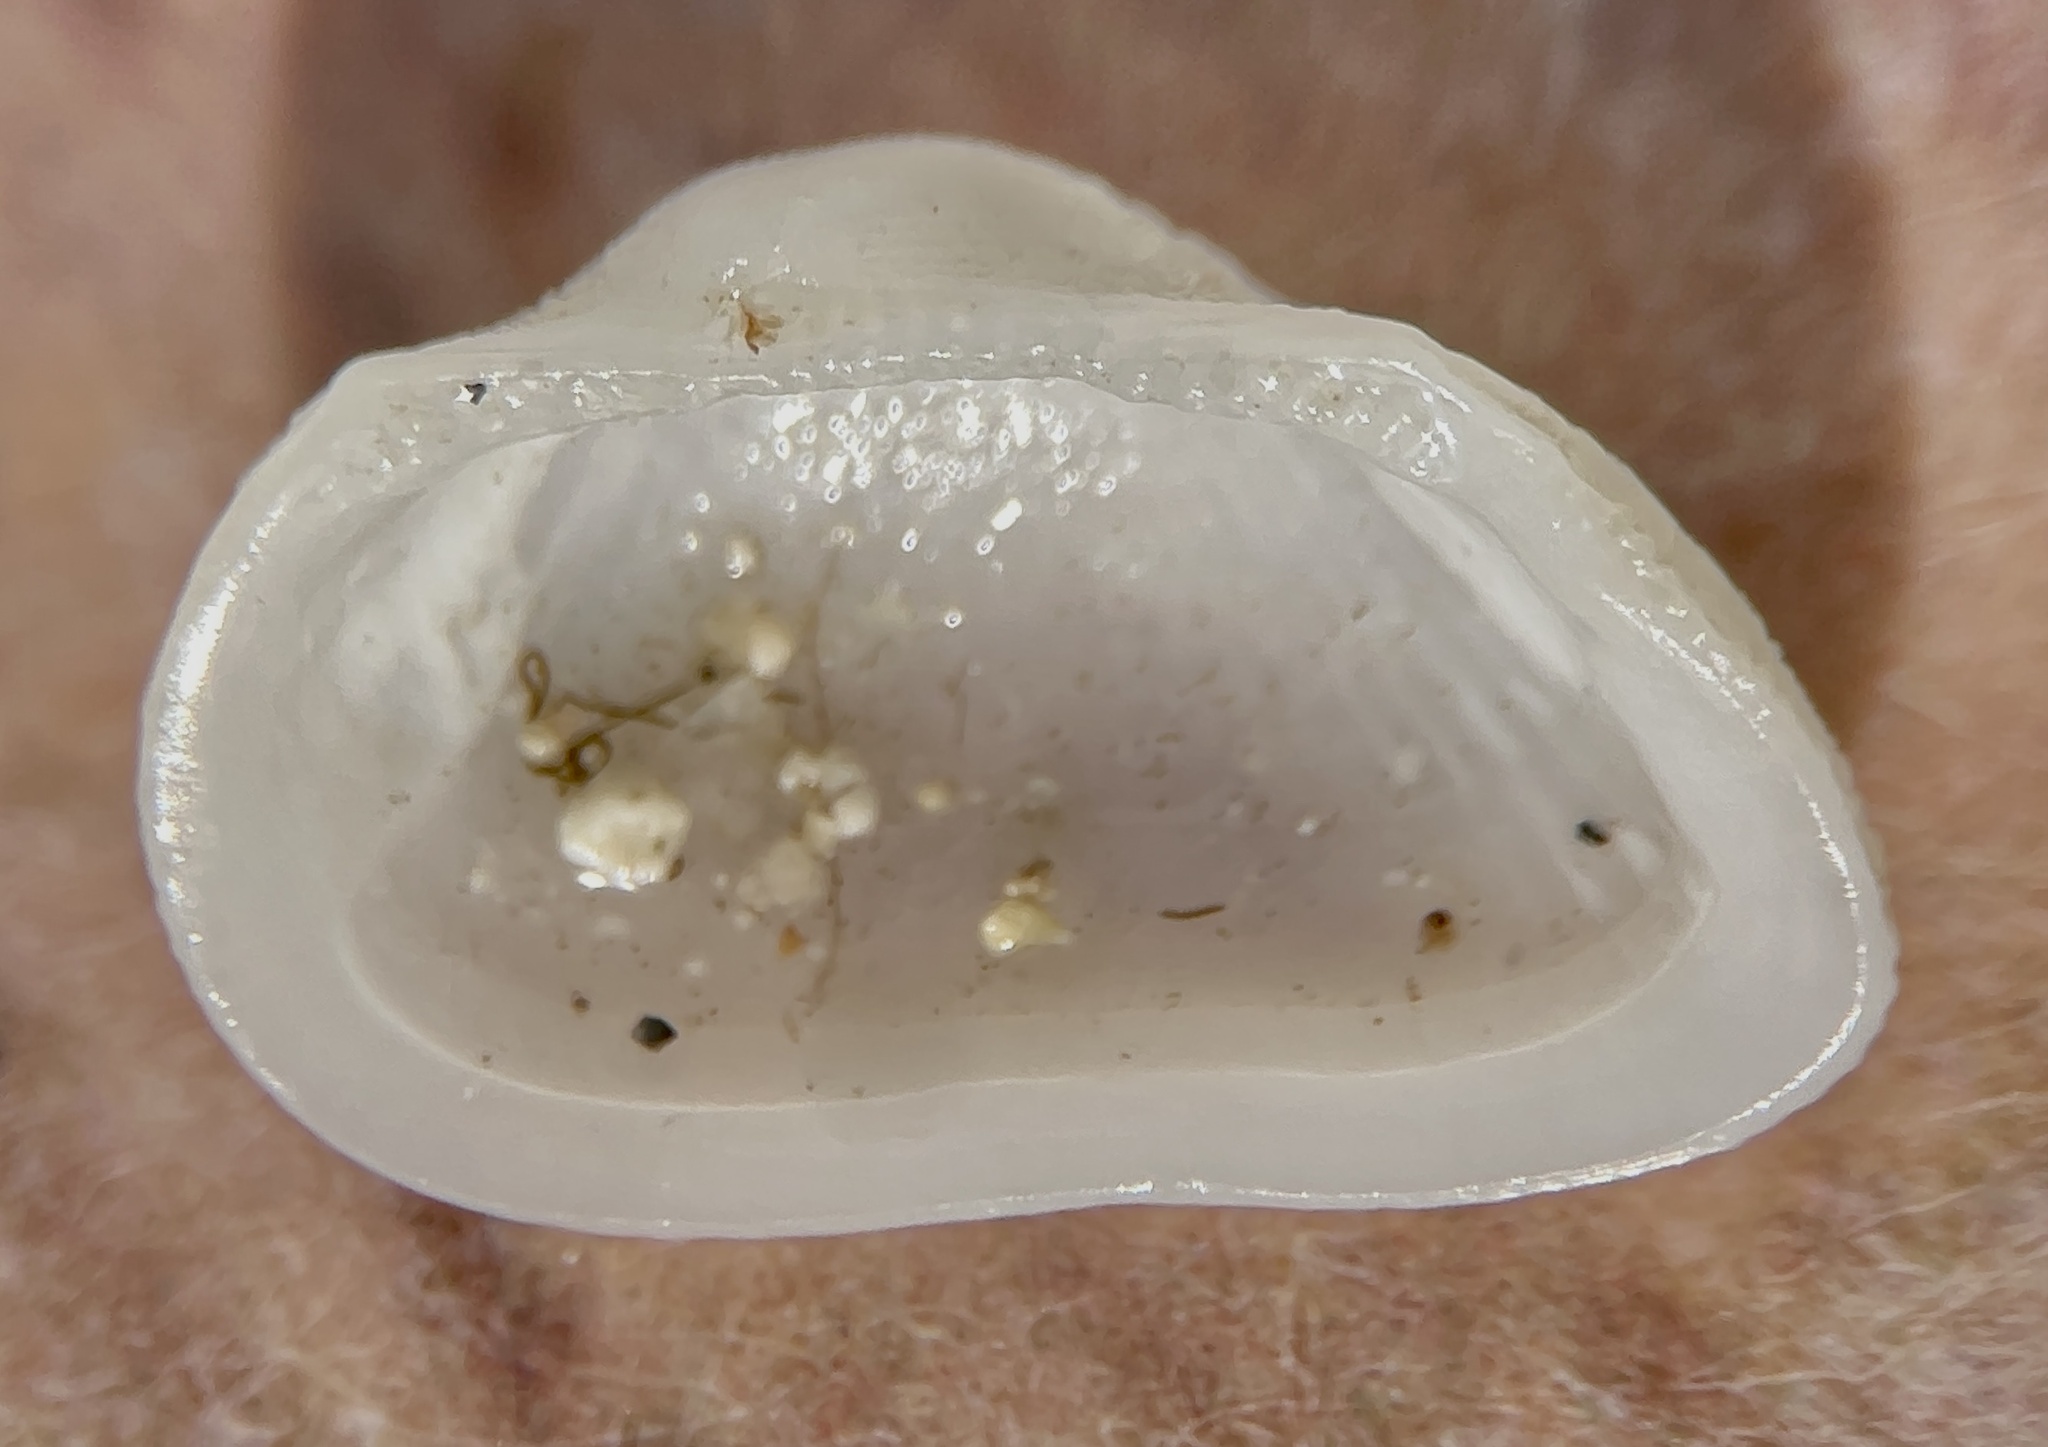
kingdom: Animalia
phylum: Mollusca
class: Bivalvia
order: Arcida
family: Noetiidae
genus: Arcopsis
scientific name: Arcopsis adamsi
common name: Cancellate miniature ark
